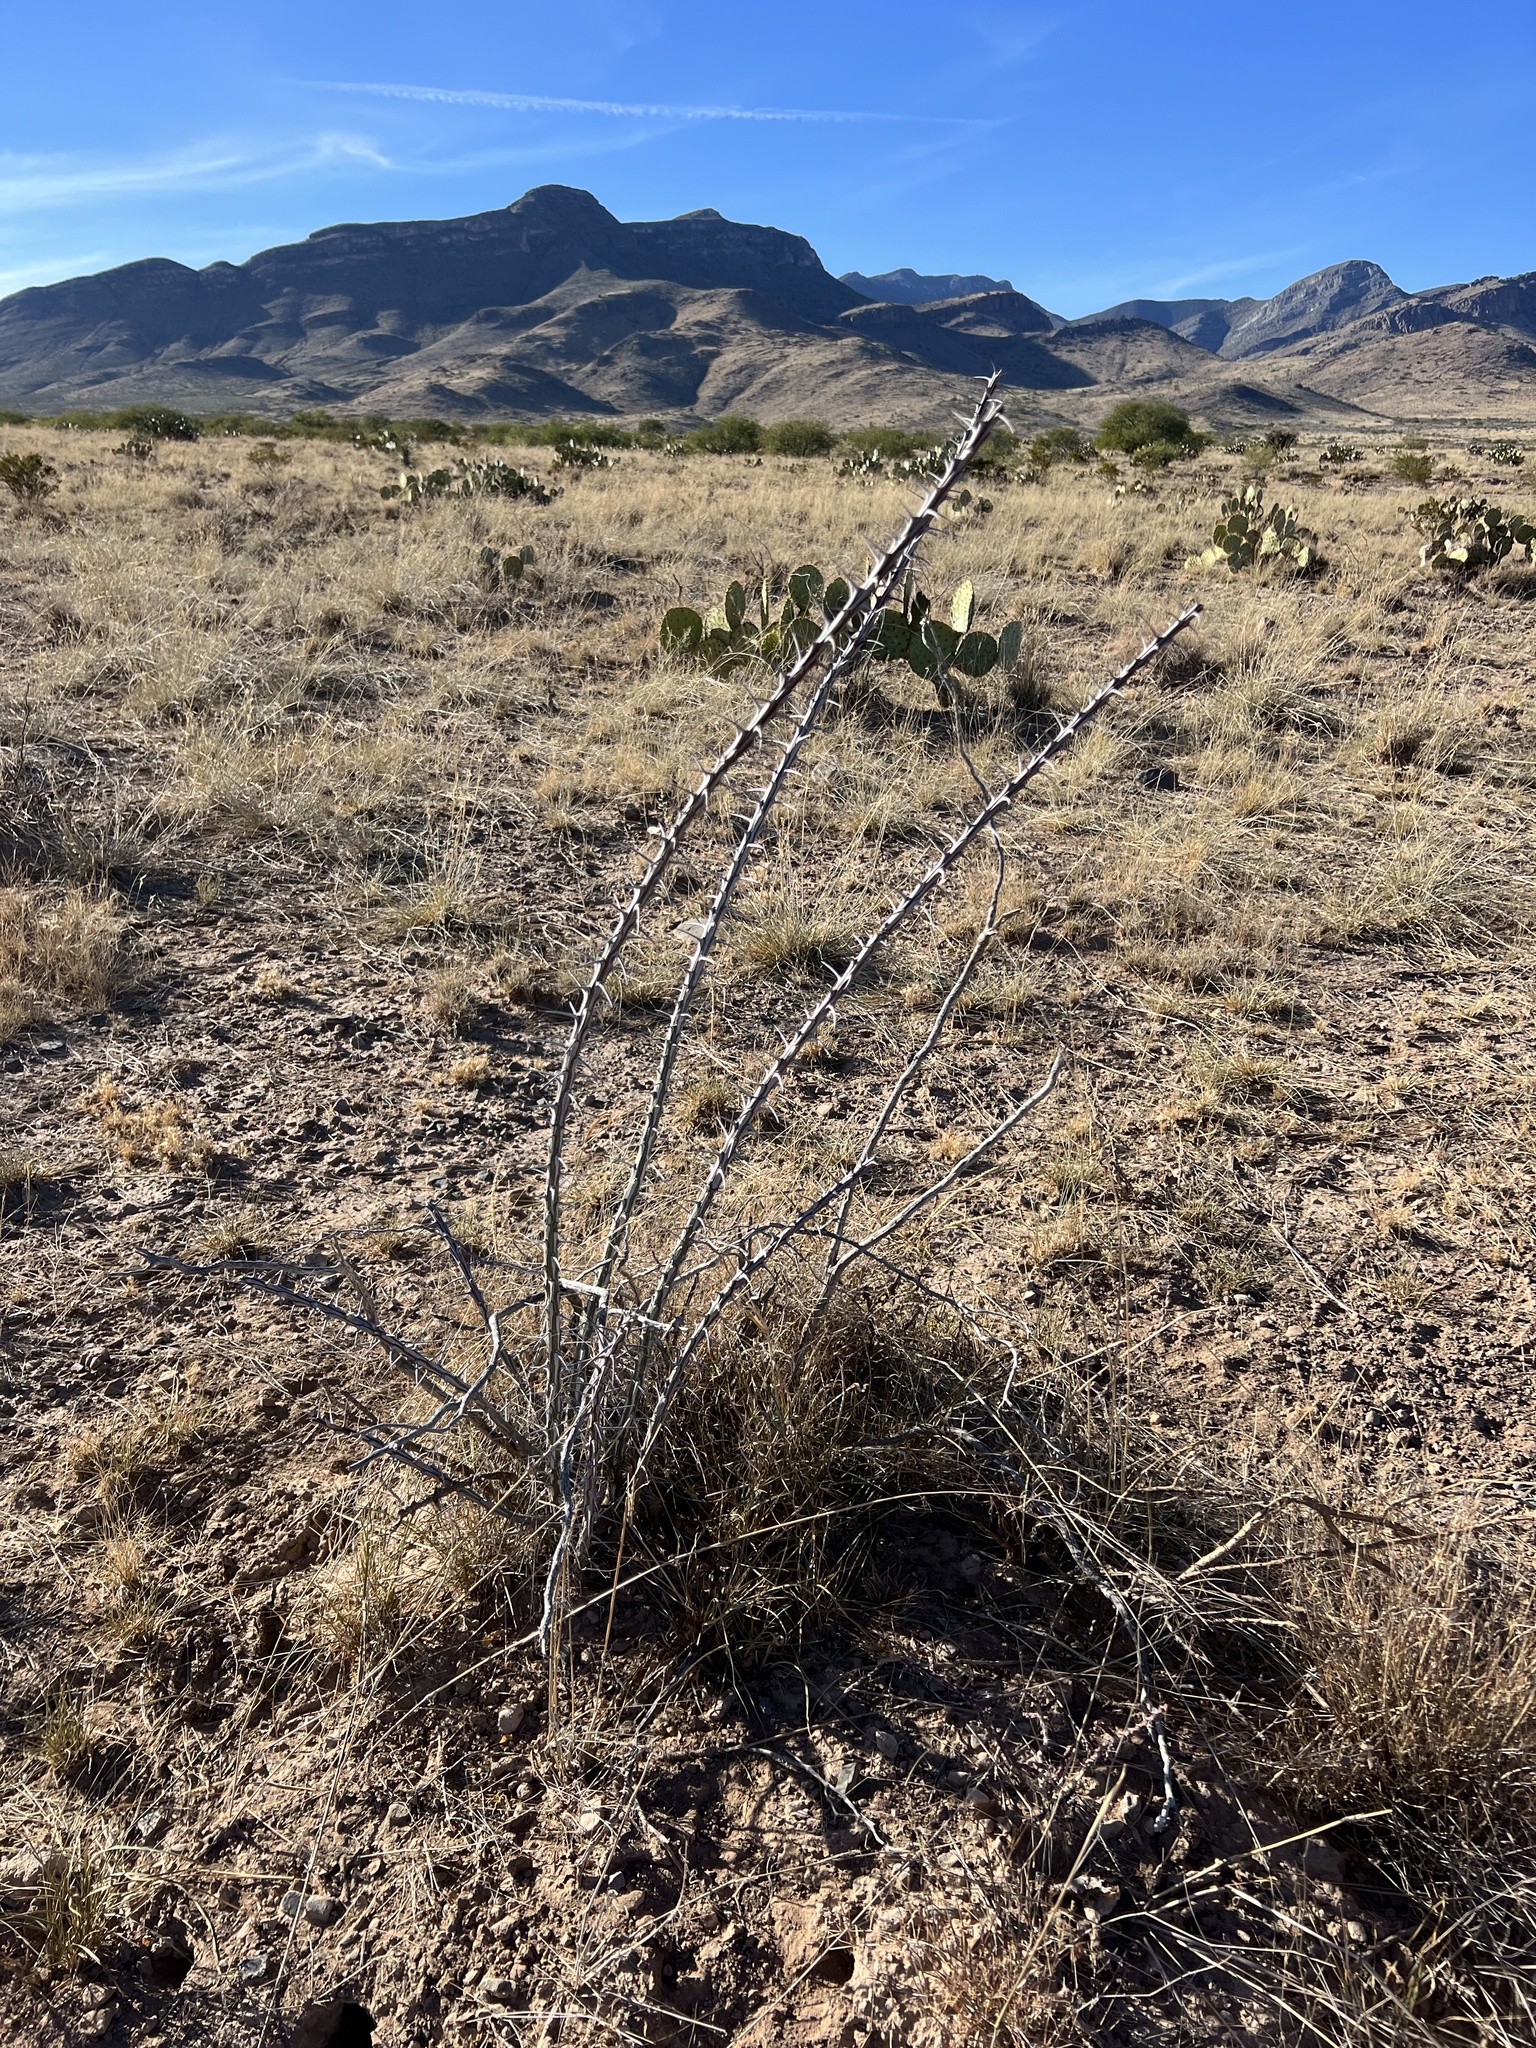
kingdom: Plantae
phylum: Tracheophyta
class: Magnoliopsida
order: Ericales
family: Fouquieriaceae
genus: Fouquieria
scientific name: Fouquieria splendens
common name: Vine-cactus
